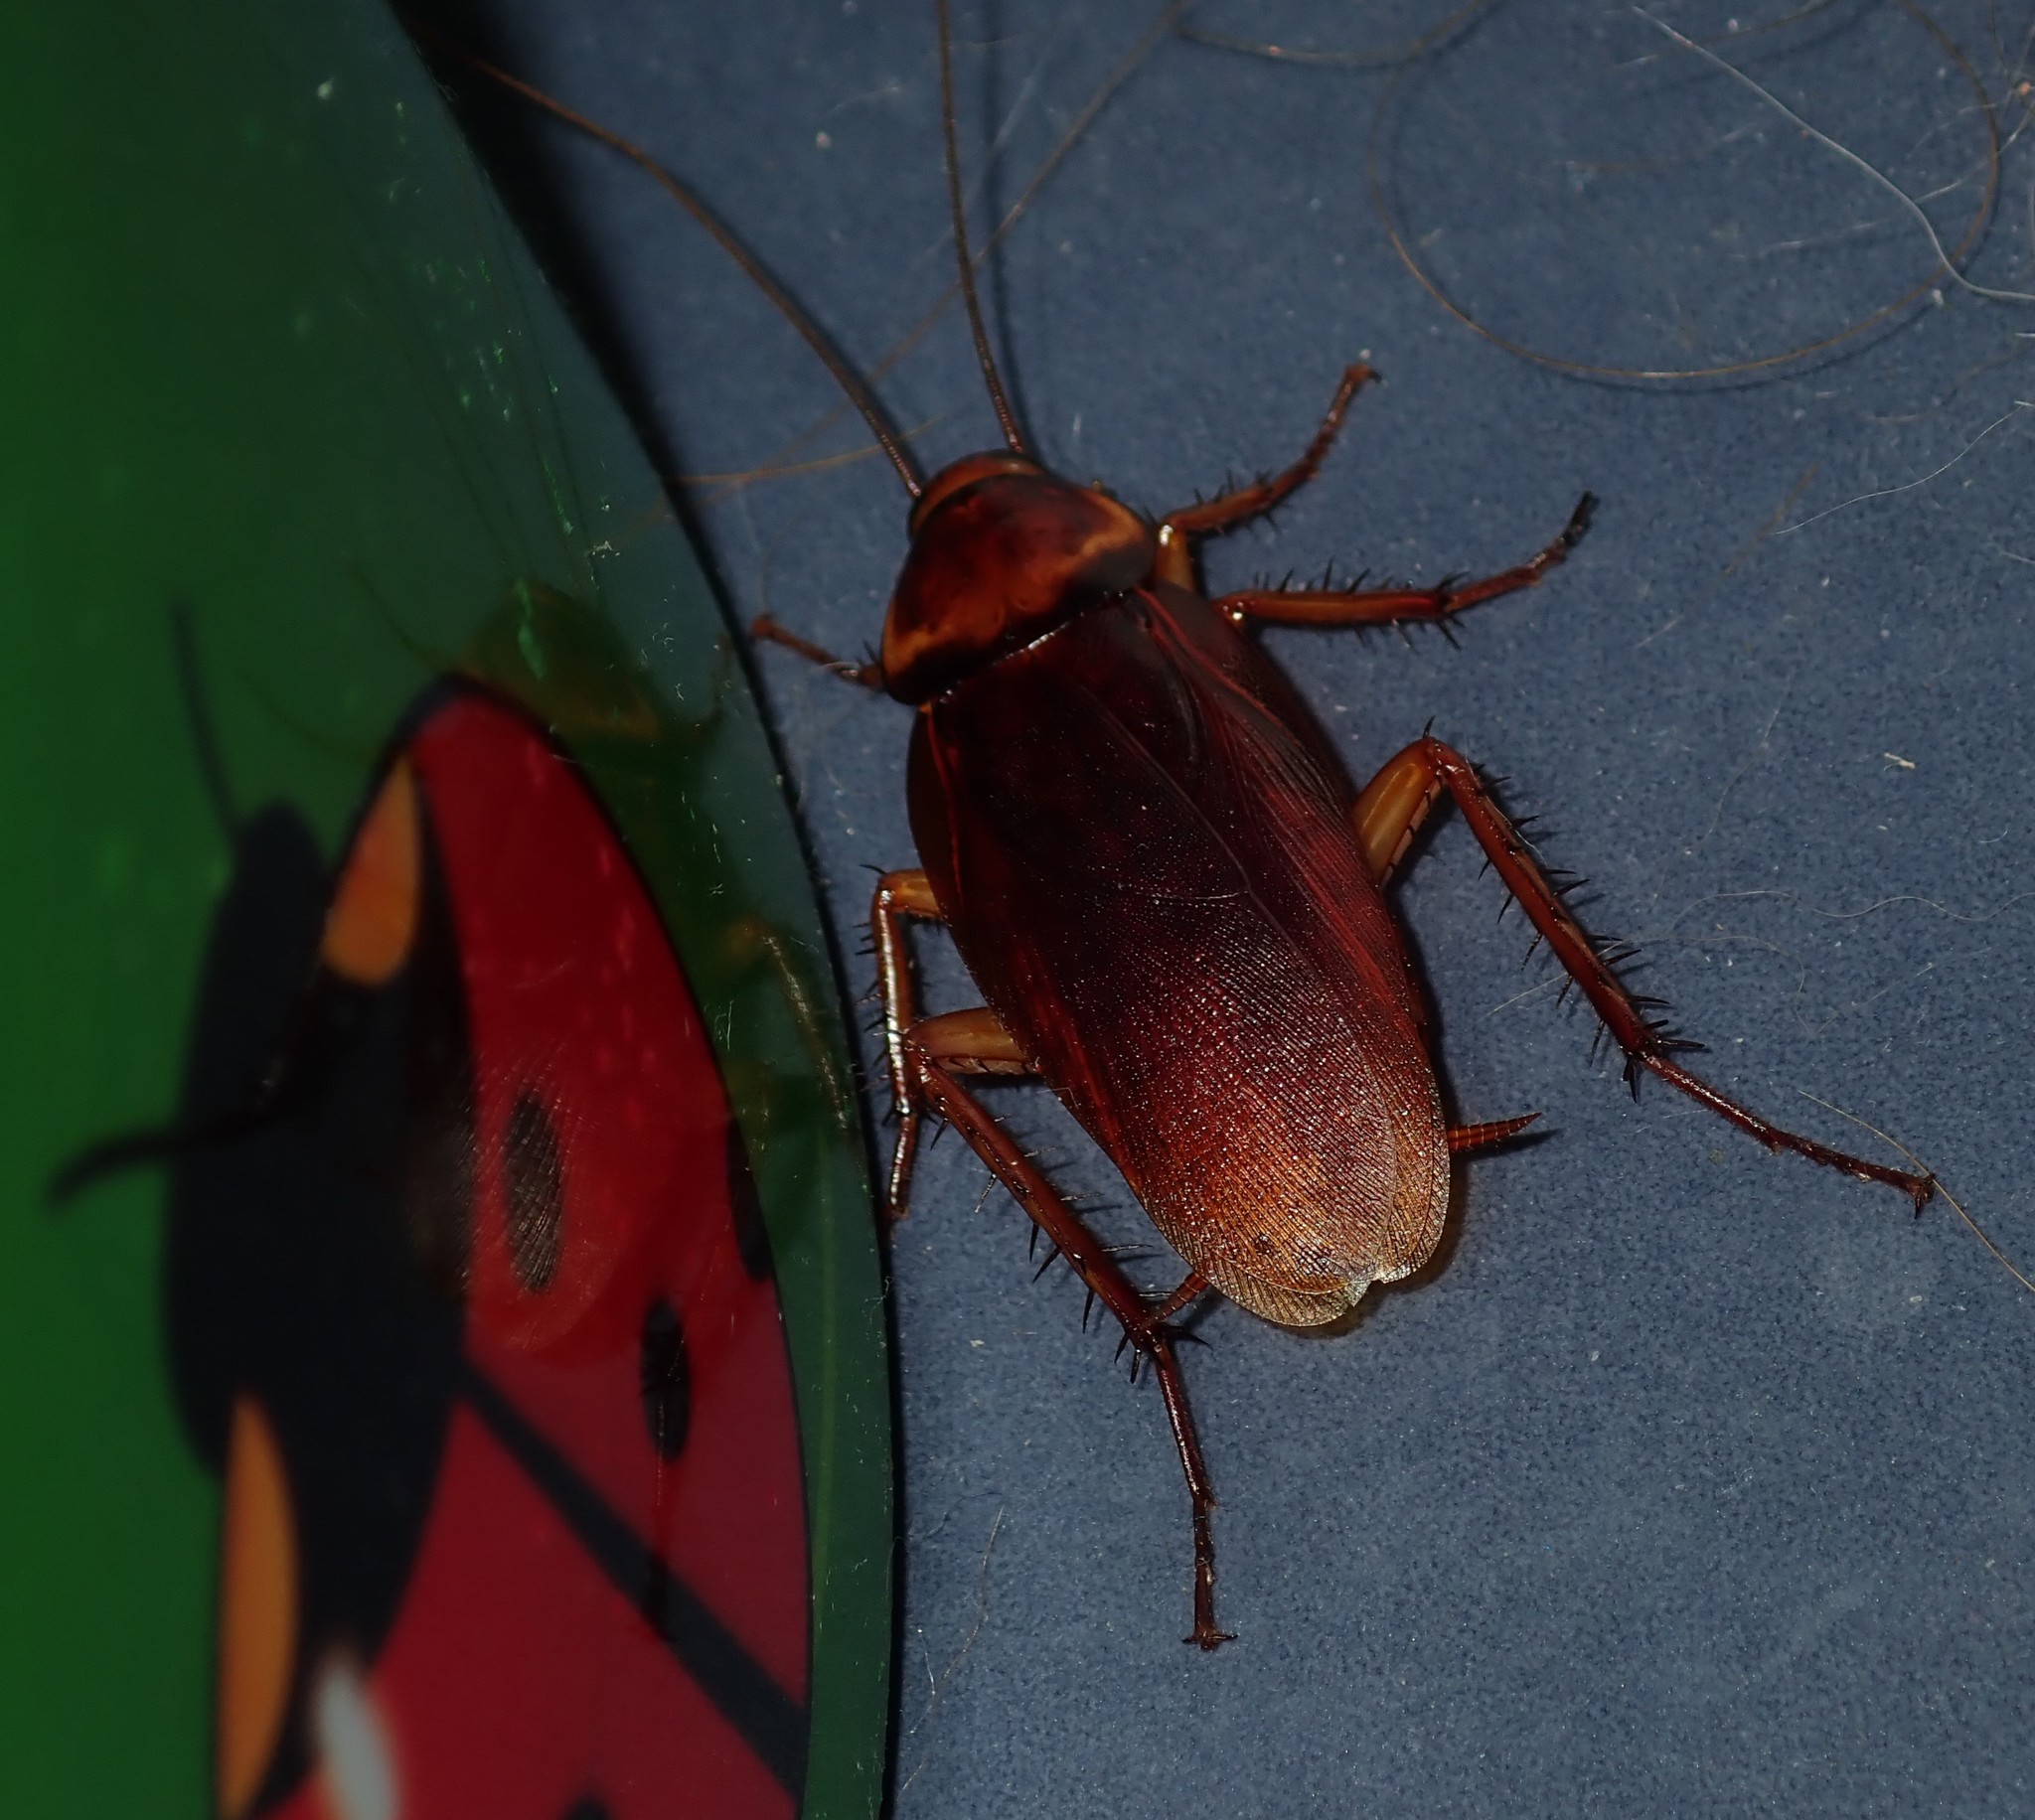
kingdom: Animalia
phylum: Arthropoda
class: Insecta
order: Blattodea
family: Blattidae
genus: Periplaneta
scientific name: Periplaneta americana
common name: American cockroach
